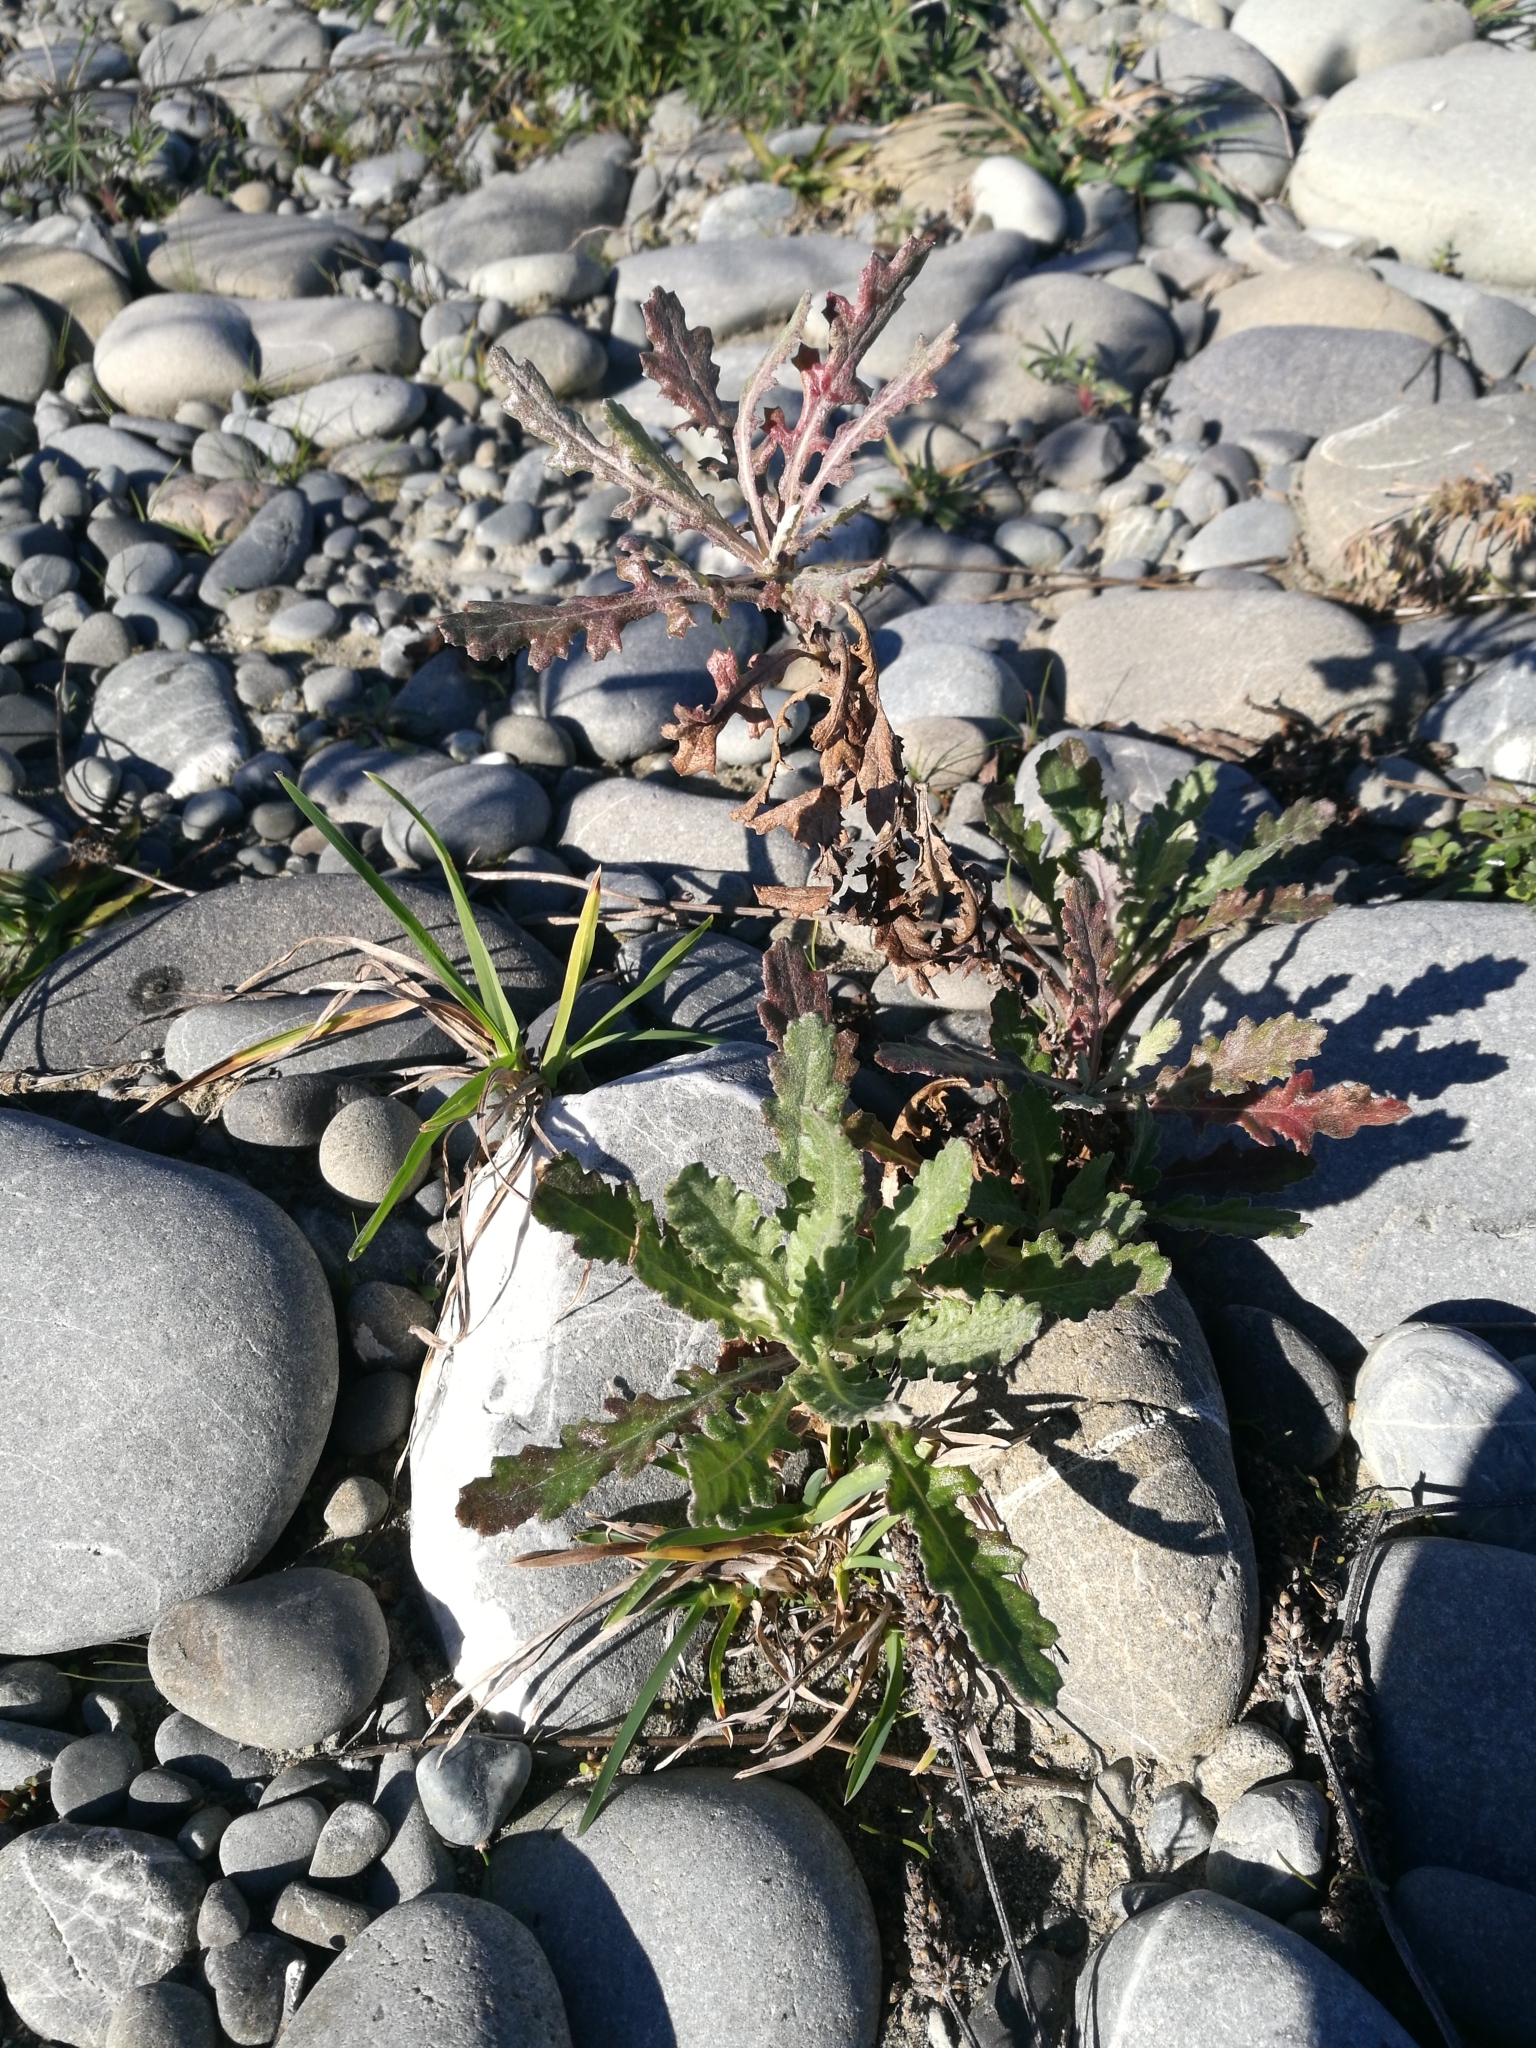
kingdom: Plantae
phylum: Tracheophyta
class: Magnoliopsida
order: Asterales
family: Asteraceae
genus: Senecio
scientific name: Senecio glomeratus
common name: Cutleaf burnweed
